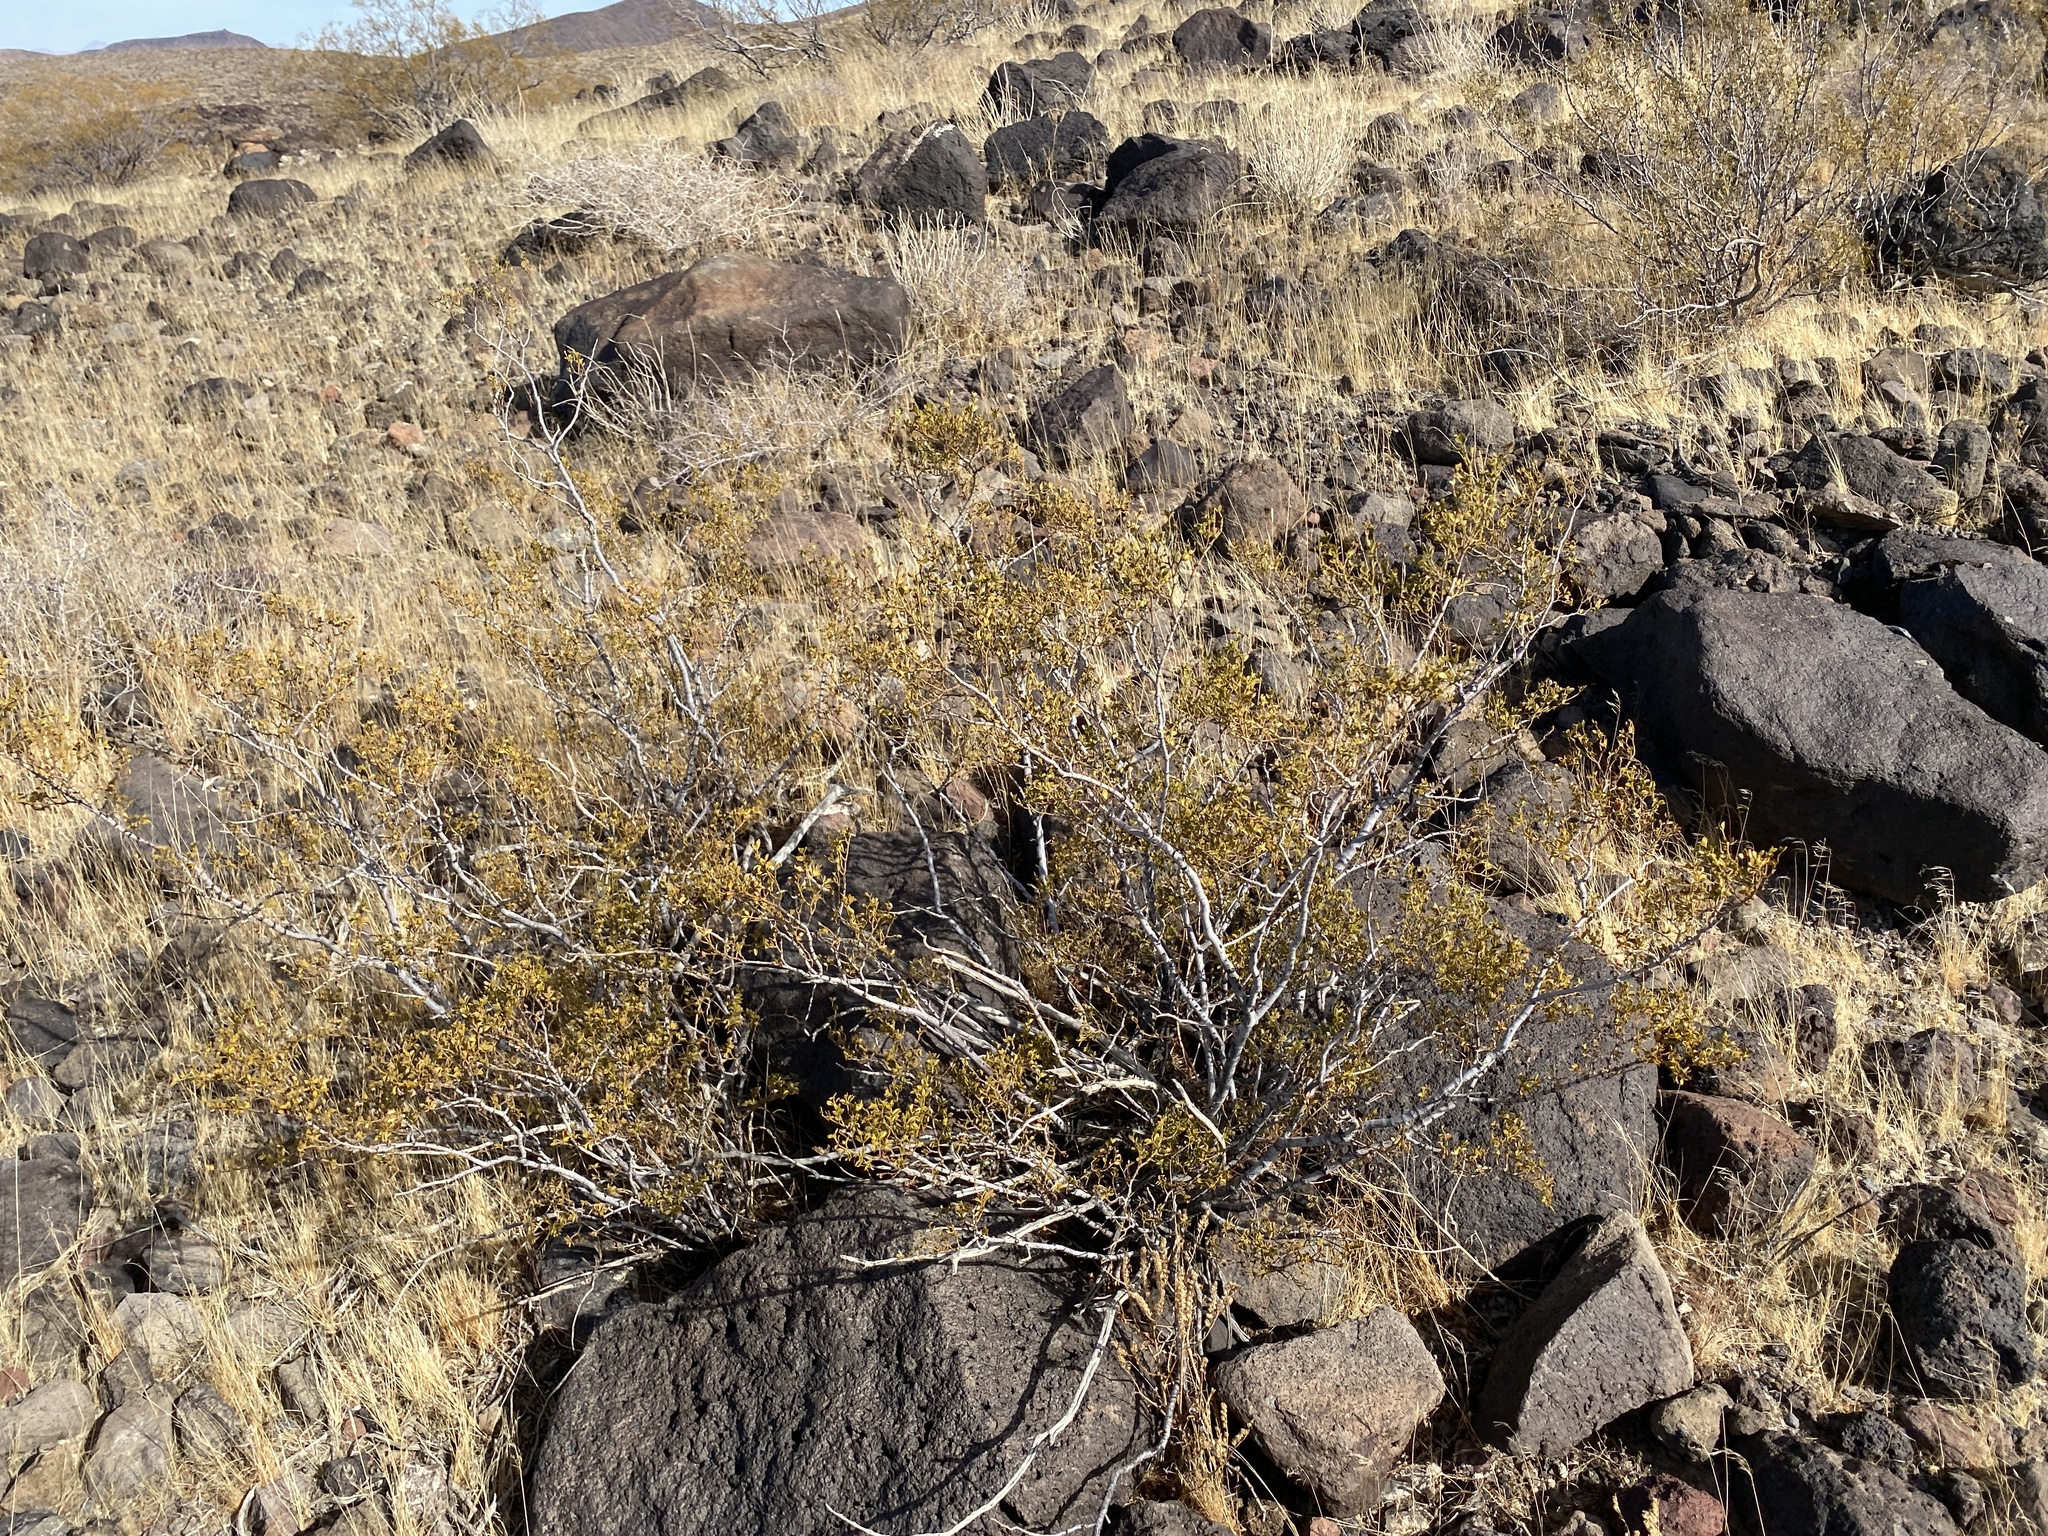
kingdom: Plantae
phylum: Tracheophyta
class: Magnoliopsida
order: Zygophyllales
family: Zygophyllaceae
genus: Larrea
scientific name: Larrea tridentata
